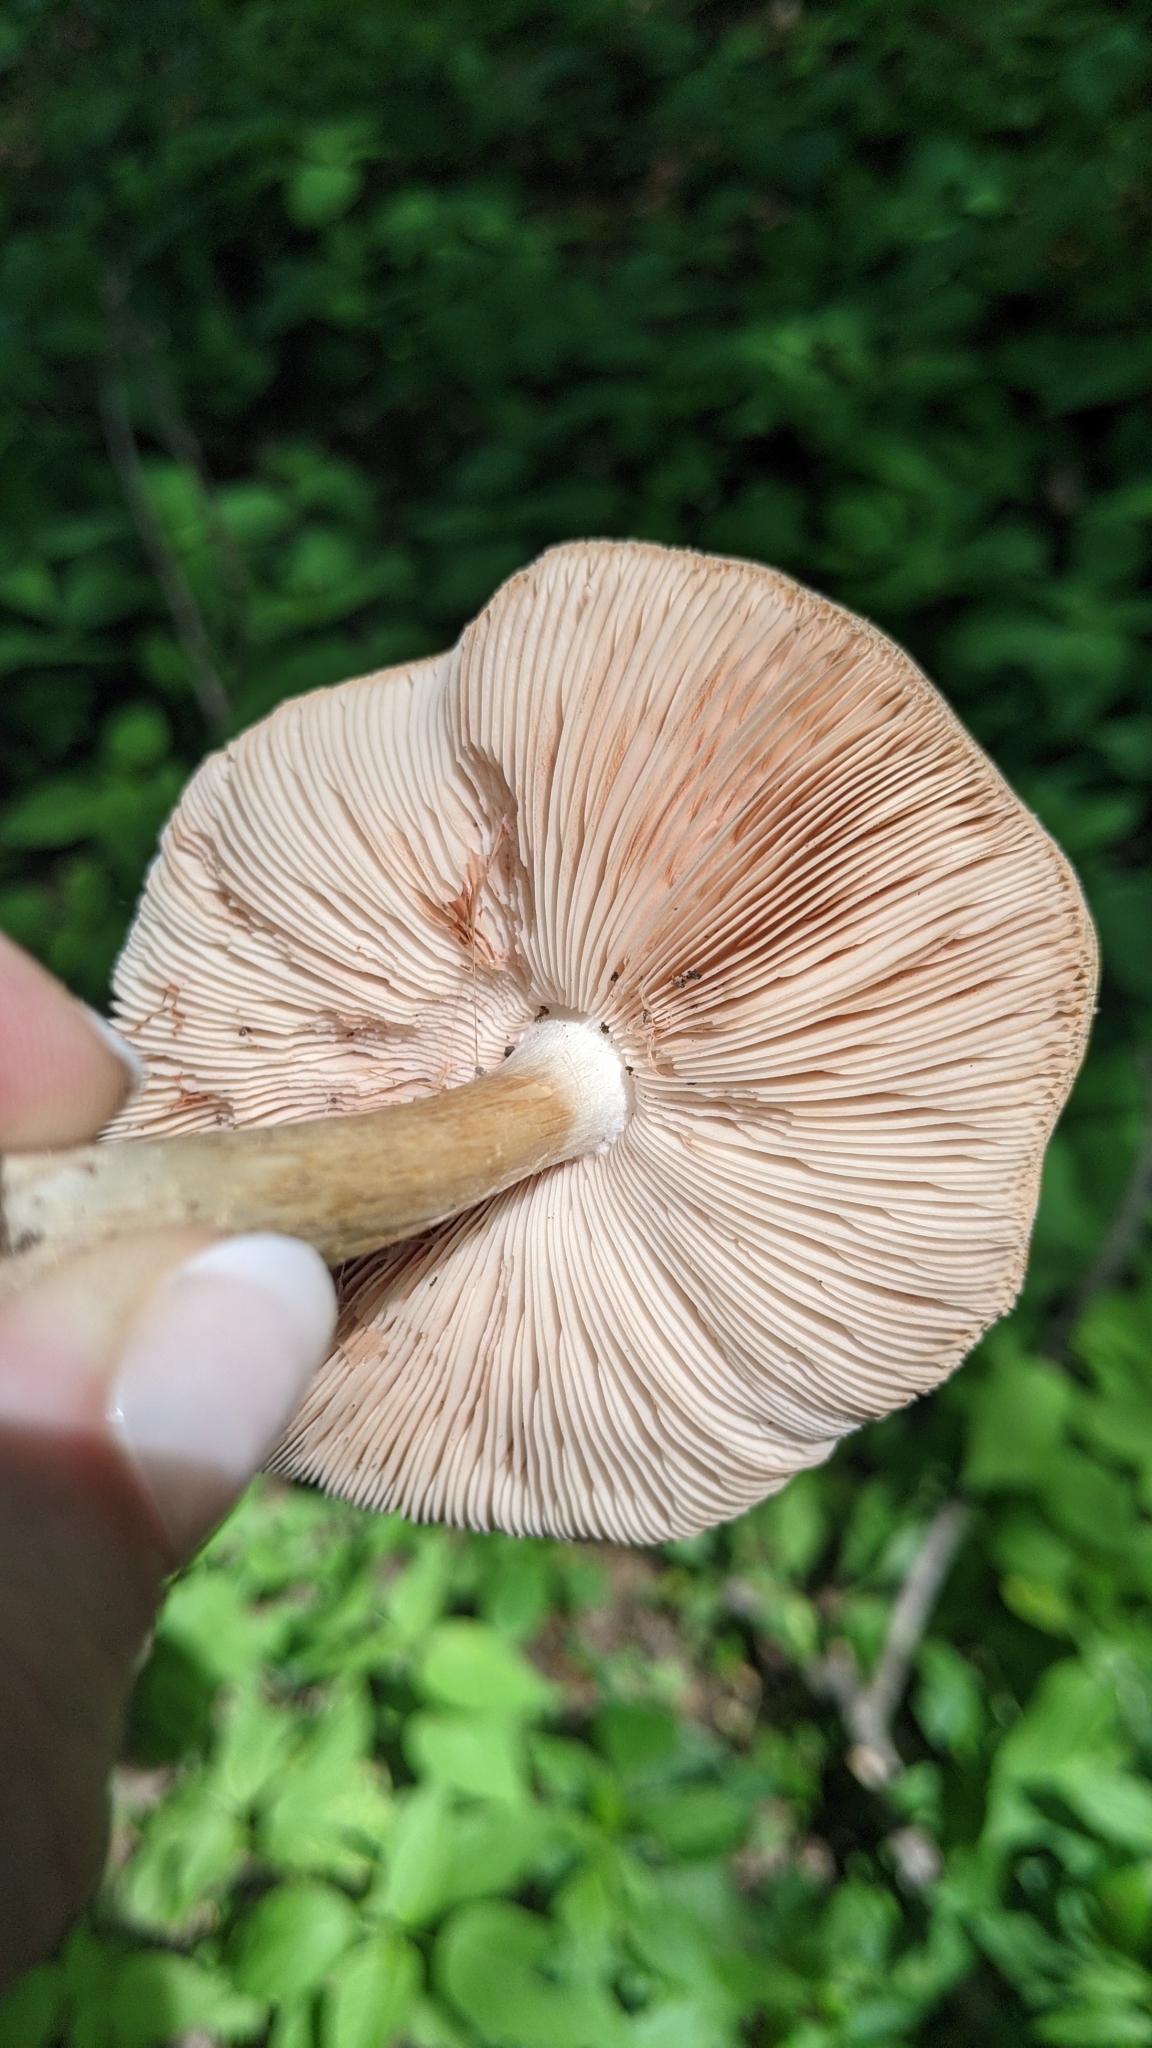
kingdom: Fungi
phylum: Basidiomycota
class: Agaricomycetes
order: Agaricales
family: Pluteaceae
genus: Volvopluteus
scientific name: Volvopluteus gloiocephalus
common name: Stubble rosegill
